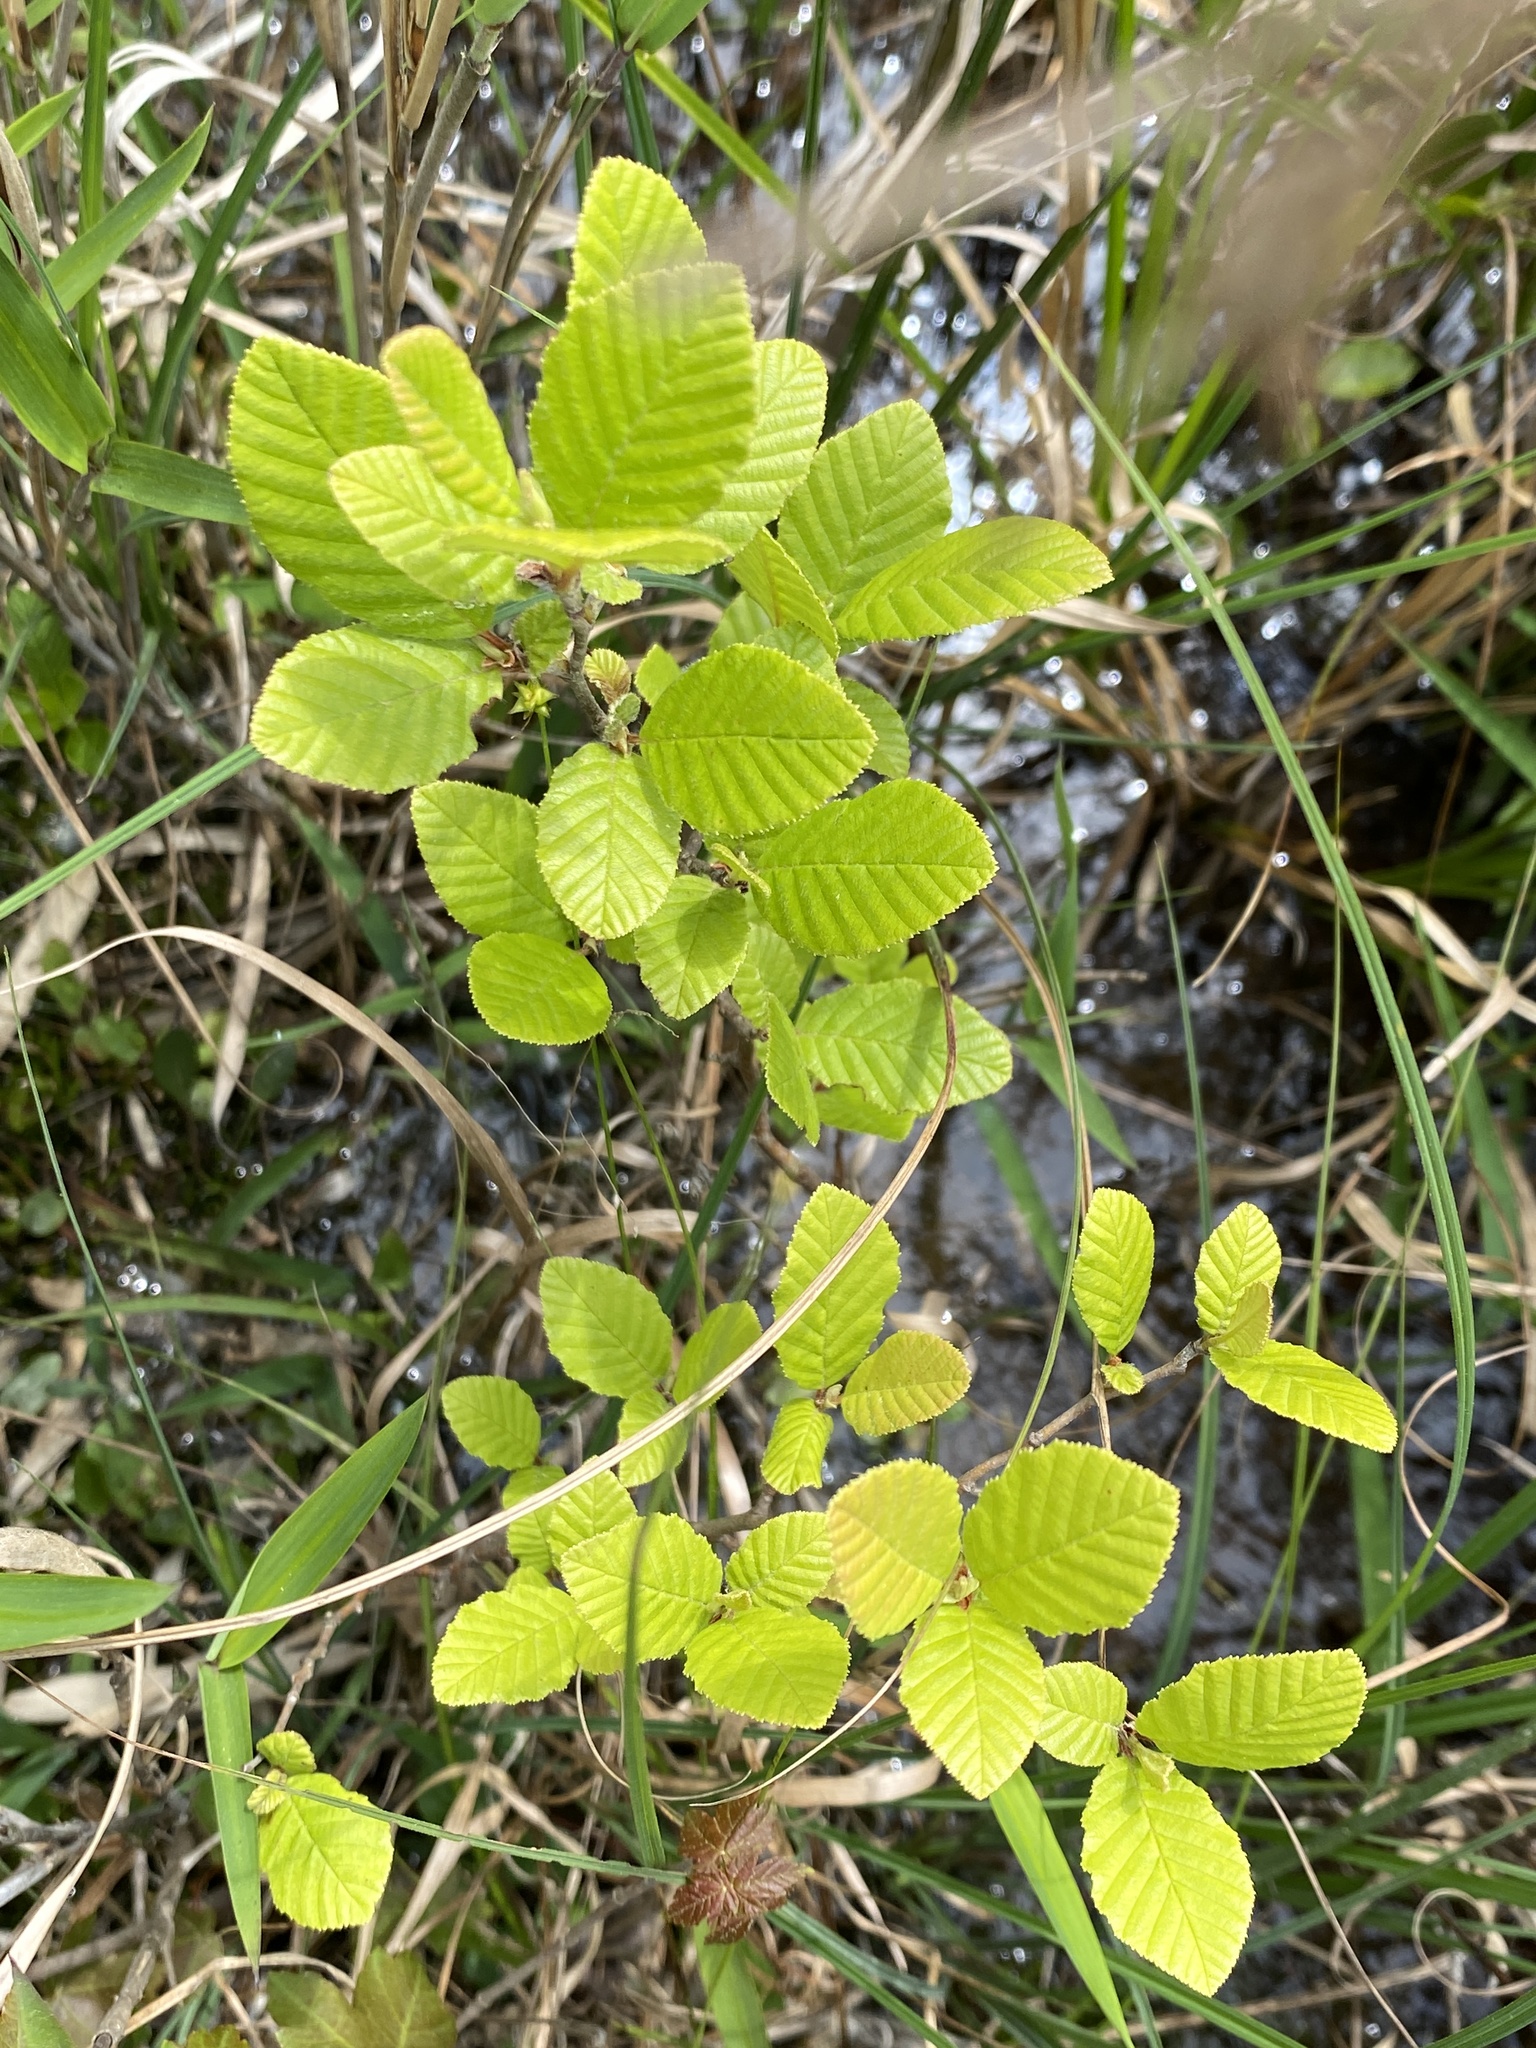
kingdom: Plantae
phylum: Tracheophyta
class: Magnoliopsida
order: Fagales
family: Betulaceae
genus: Alnus
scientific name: Alnus serrulata
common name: Hazel alder
